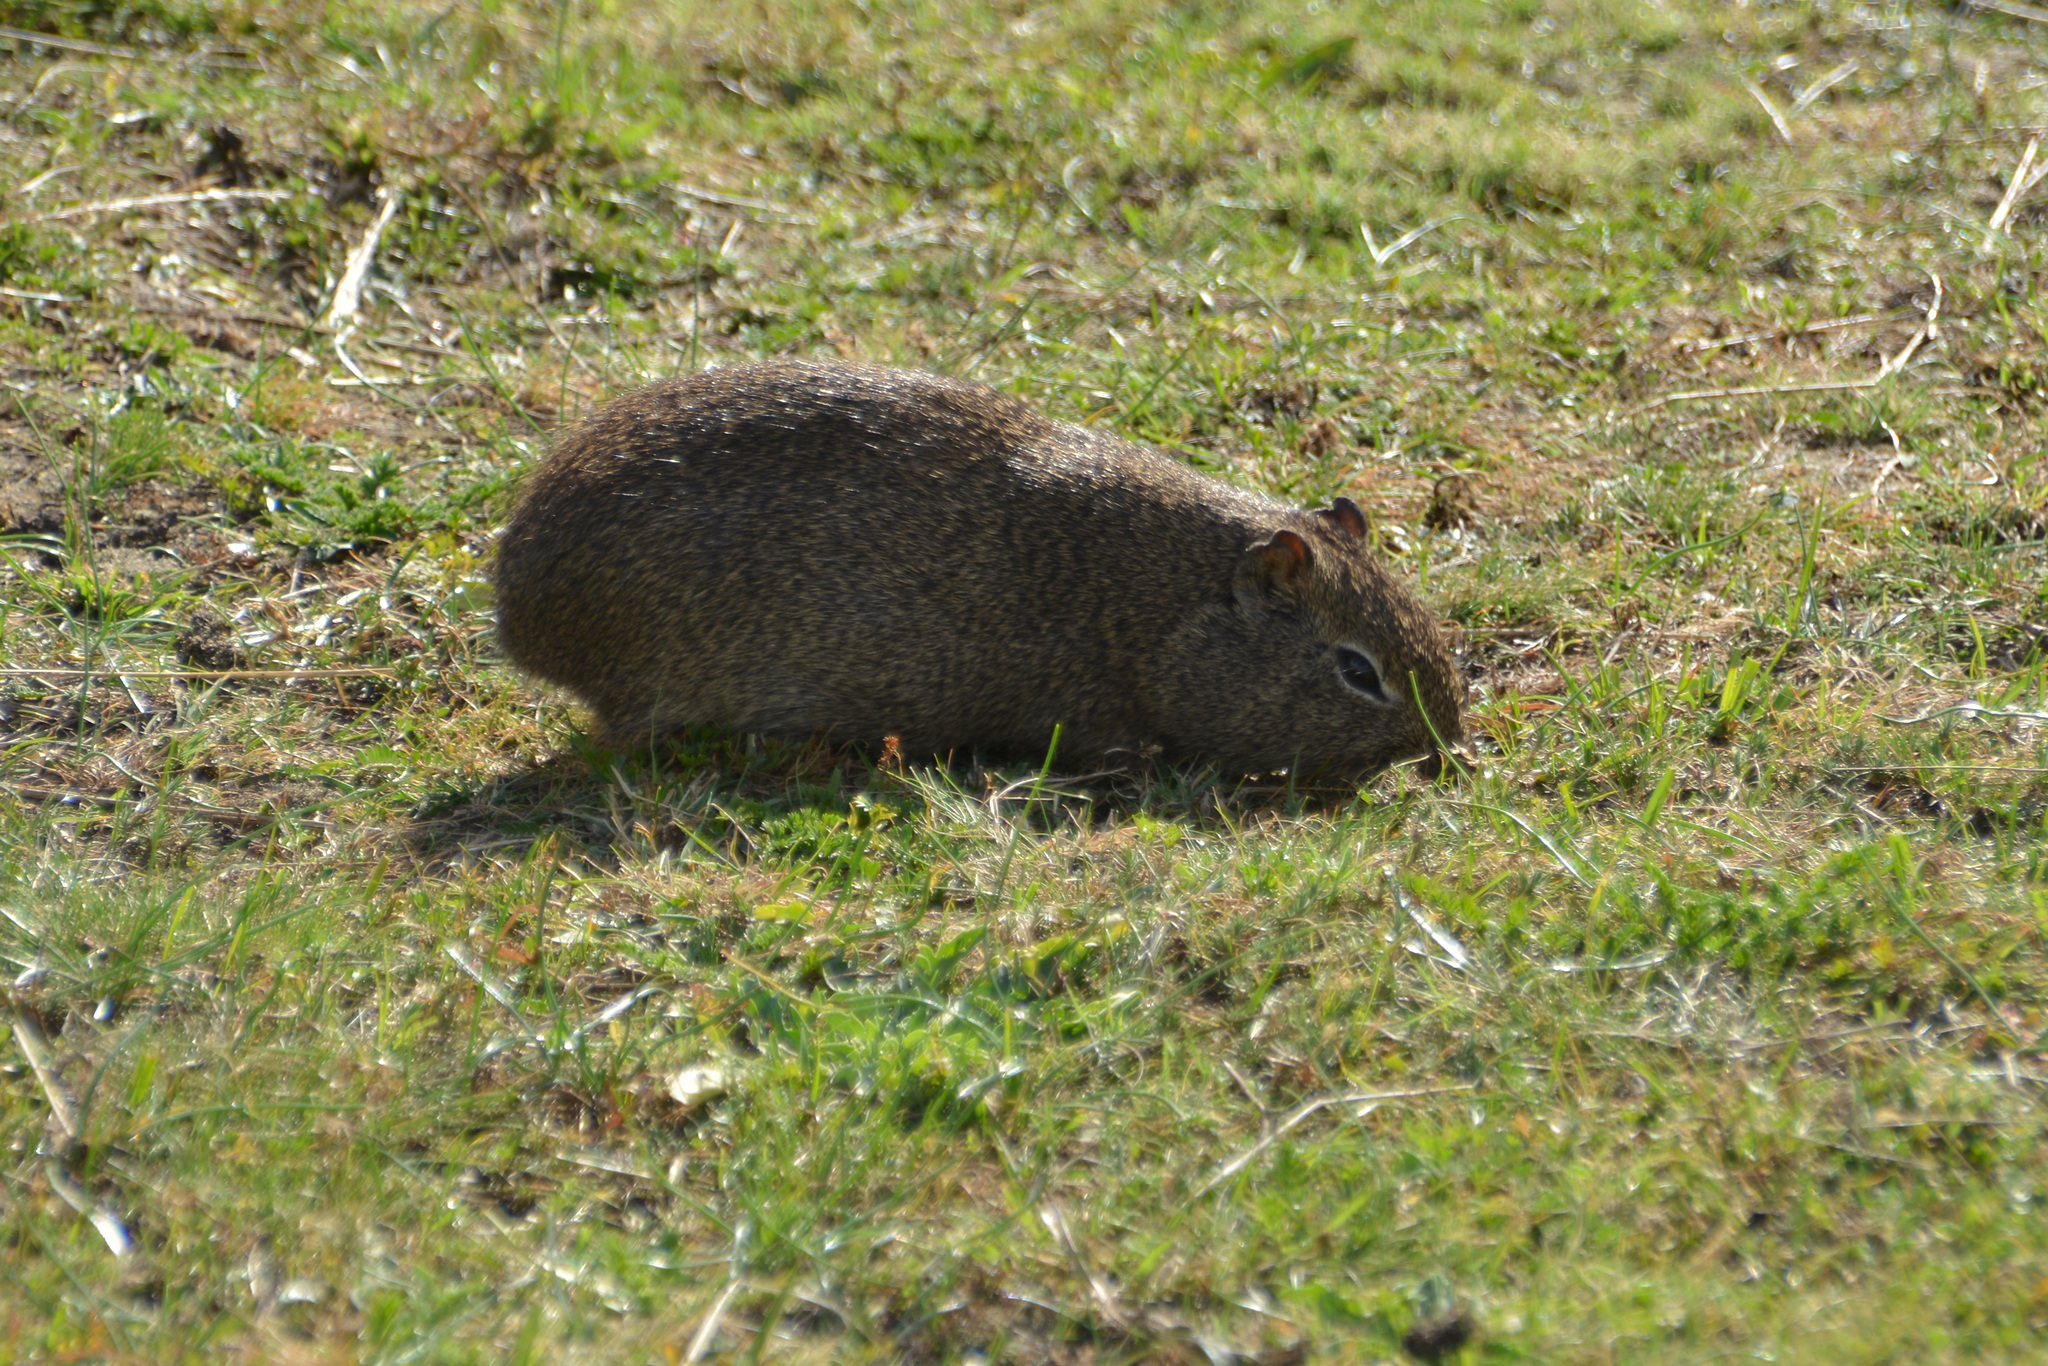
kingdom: Animalia
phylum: Chordata
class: Mammalia
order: Rodentia
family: Caviidae
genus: Galea
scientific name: Galea musteloides
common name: Common yellow-toothed cavy
